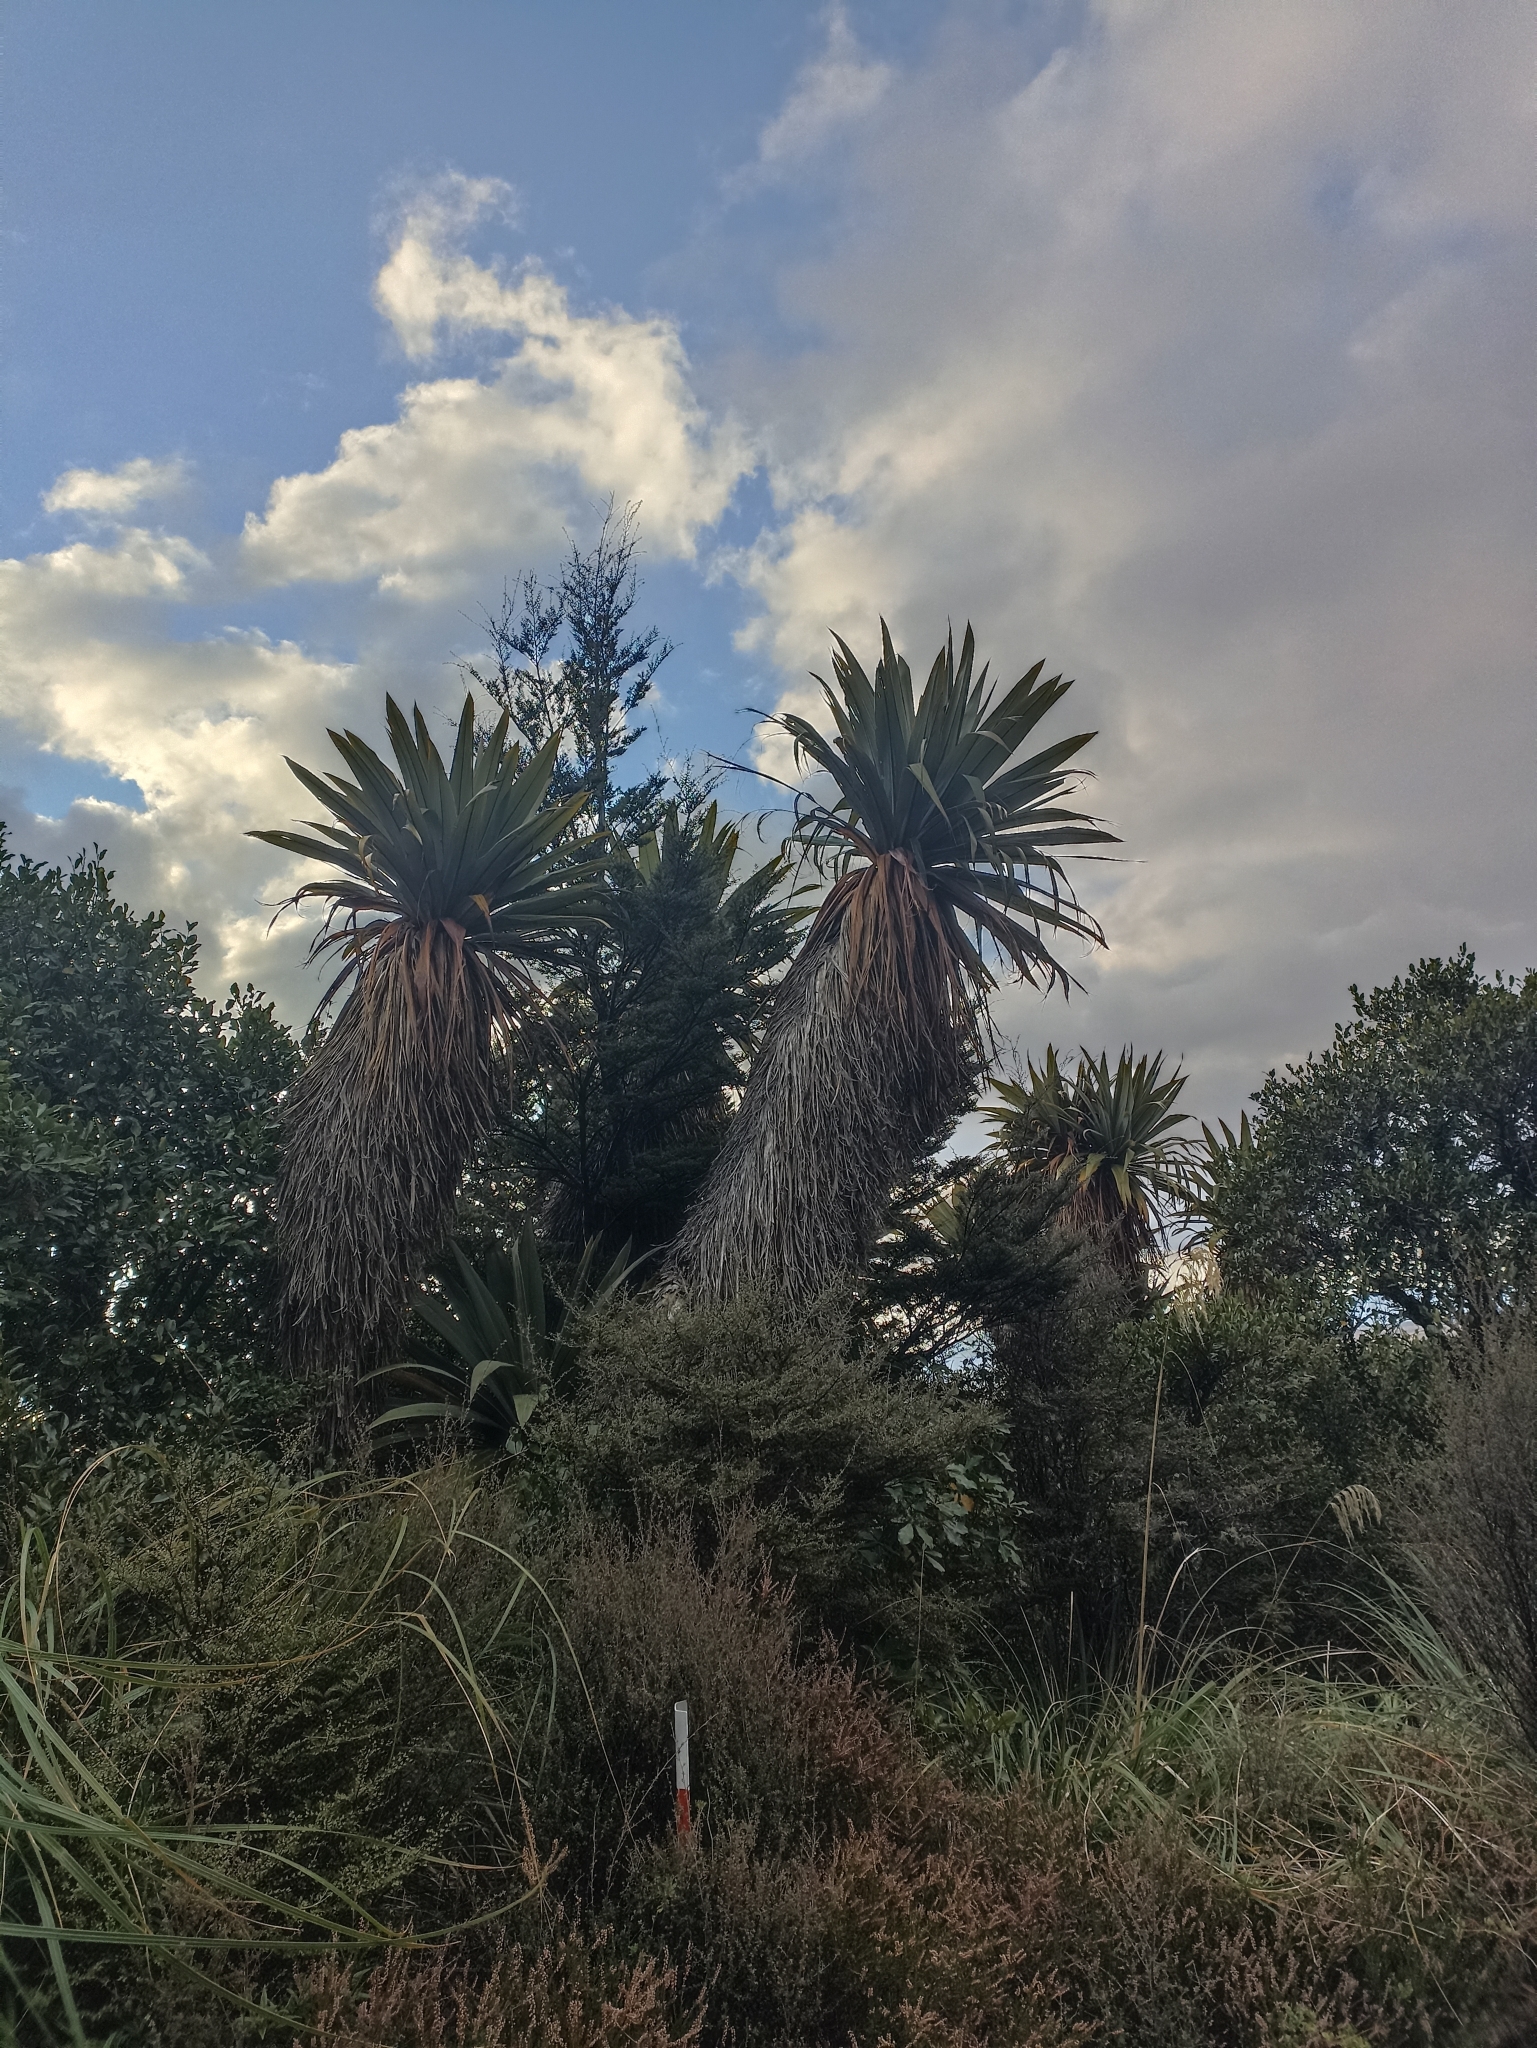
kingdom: Plantae
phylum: Tracheophyta
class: Liliopsida
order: Asparagales
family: Asparagaceae
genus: Cordyline
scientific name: Cordyline indivisa
